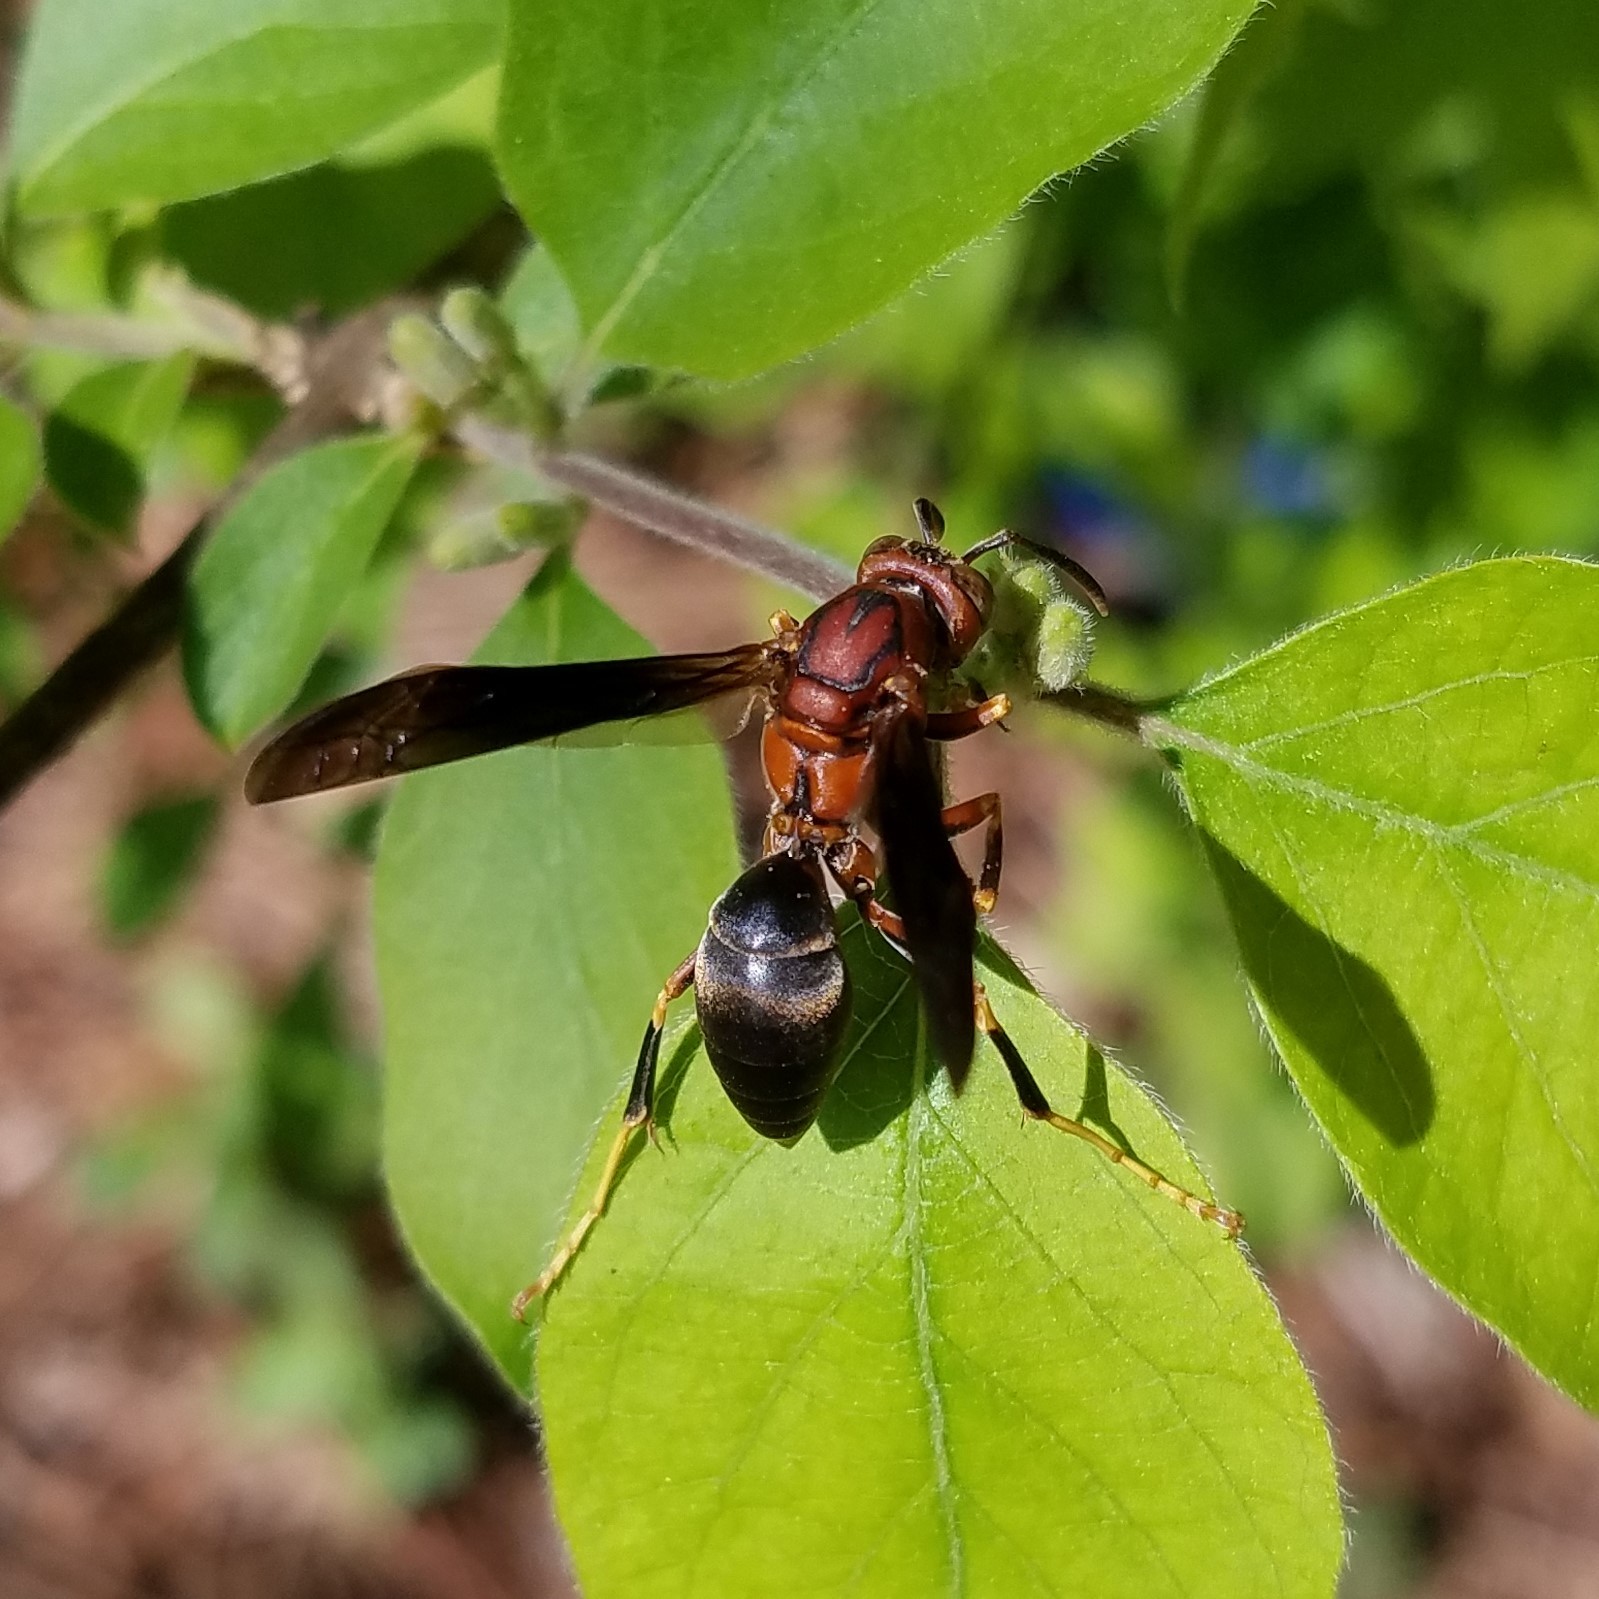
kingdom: Animalia
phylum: Arthropoda
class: Insecta
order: Hymenoptera
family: Eumenidae
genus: Polistes
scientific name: Polistes metricus
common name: Metric paper wasp
